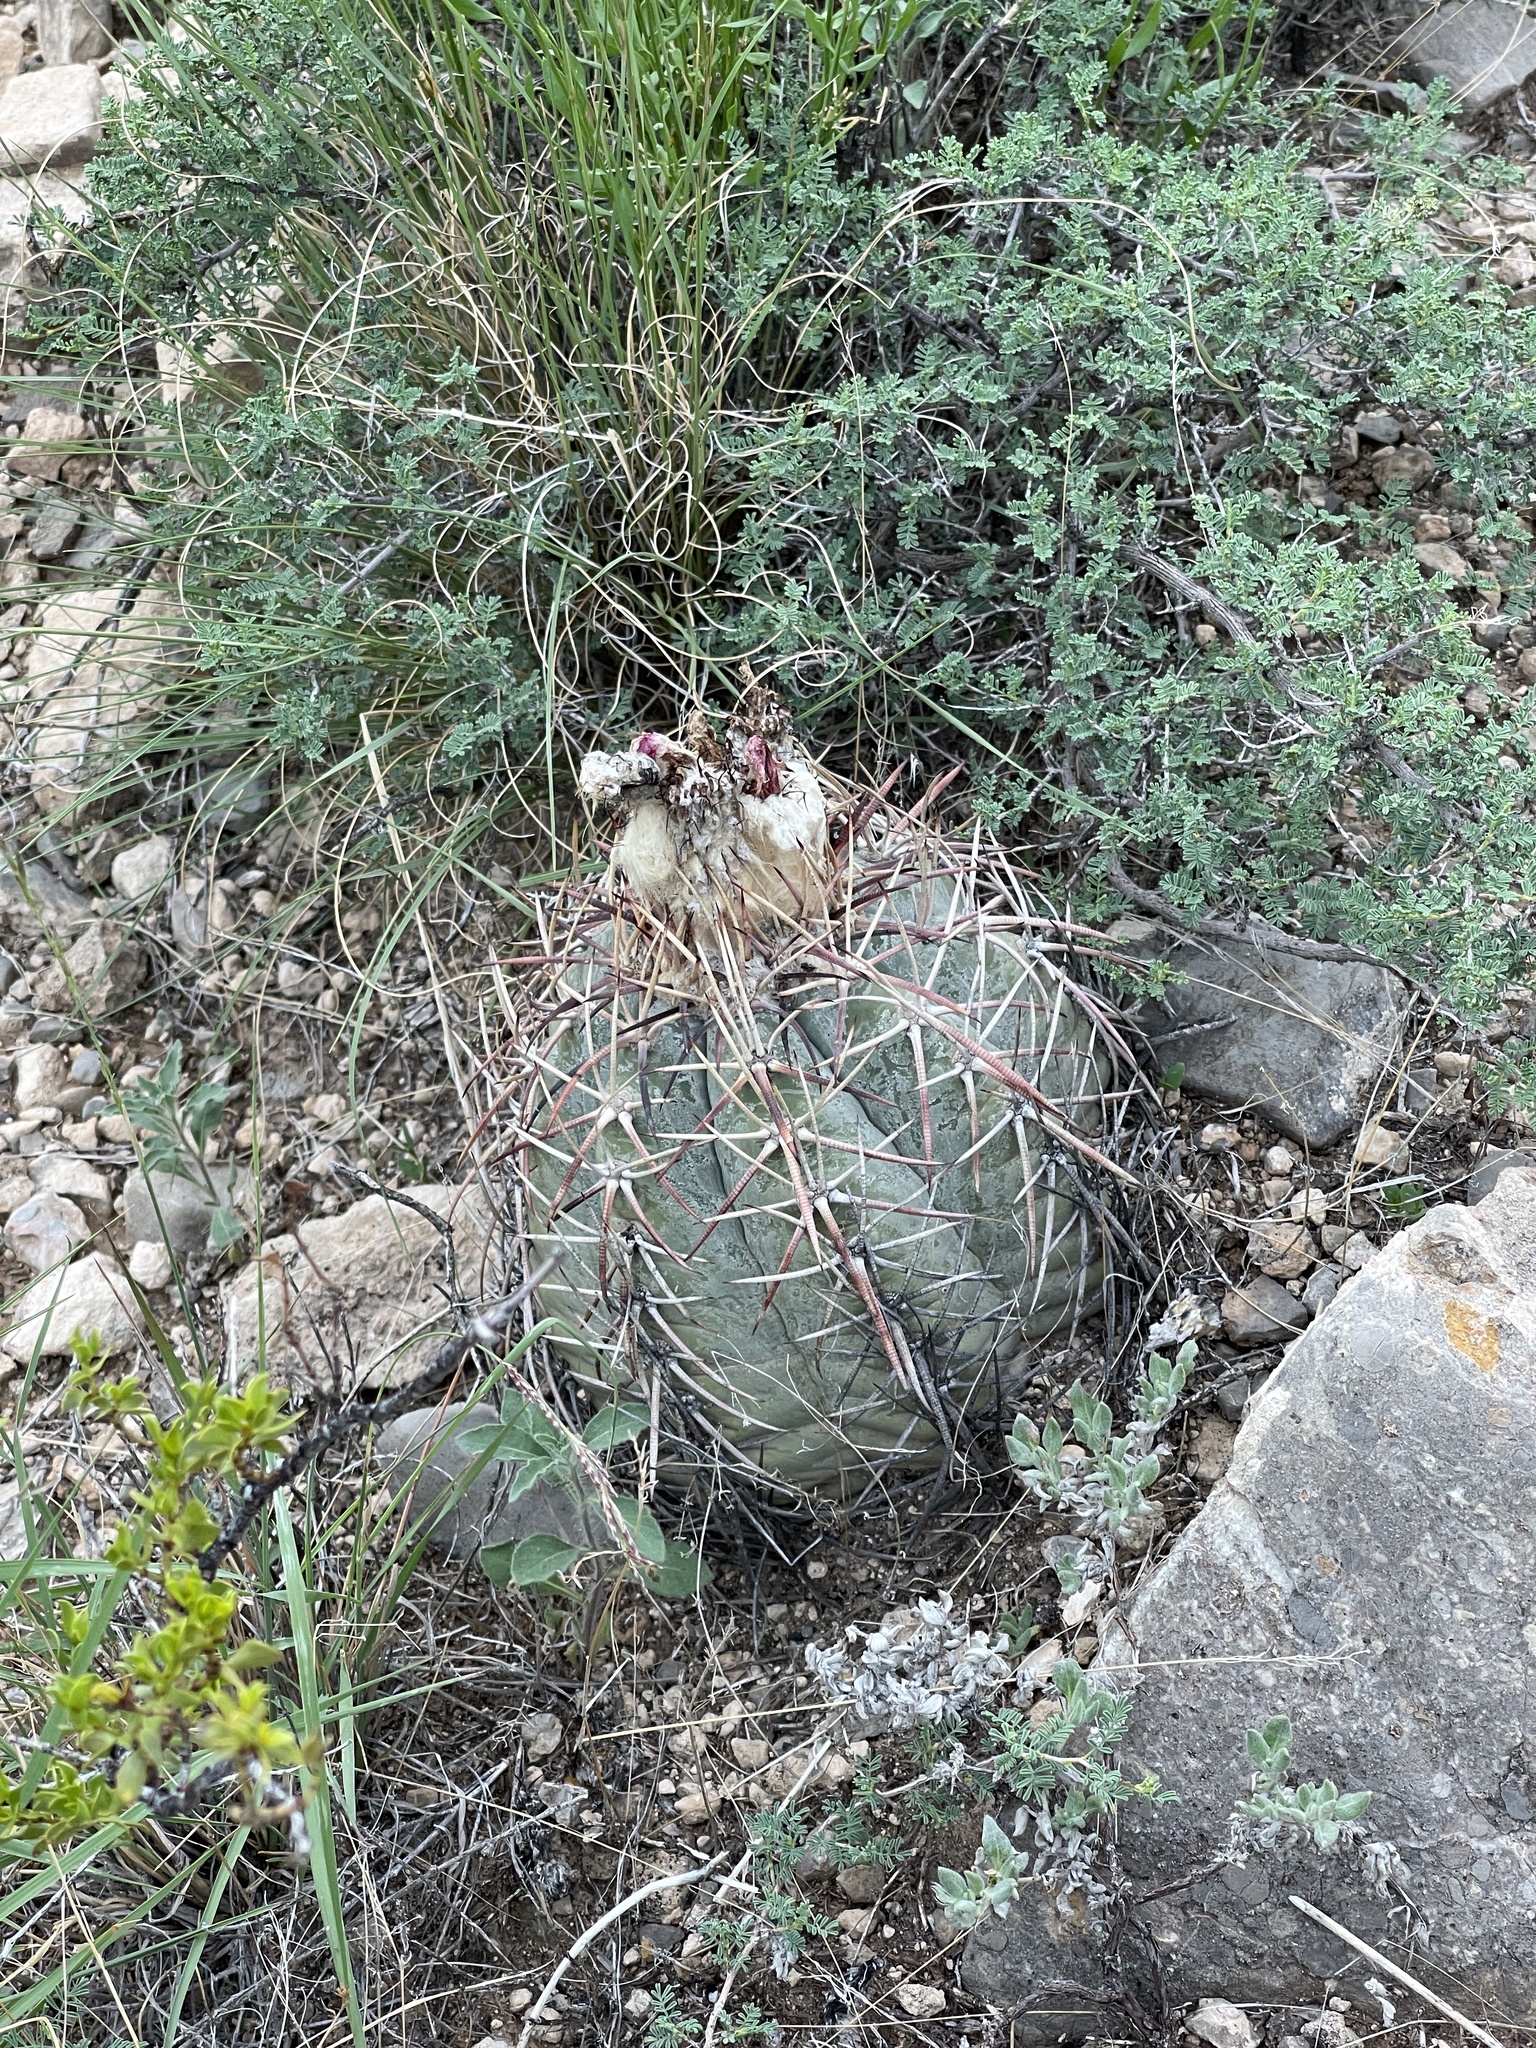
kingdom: Plantae
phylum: Tracheophyta
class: Magnoliopsida
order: Caryophyllales
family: Cactaceae
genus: Echinocactus
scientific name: Echinocactus horizonthalonius
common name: Devilshead
